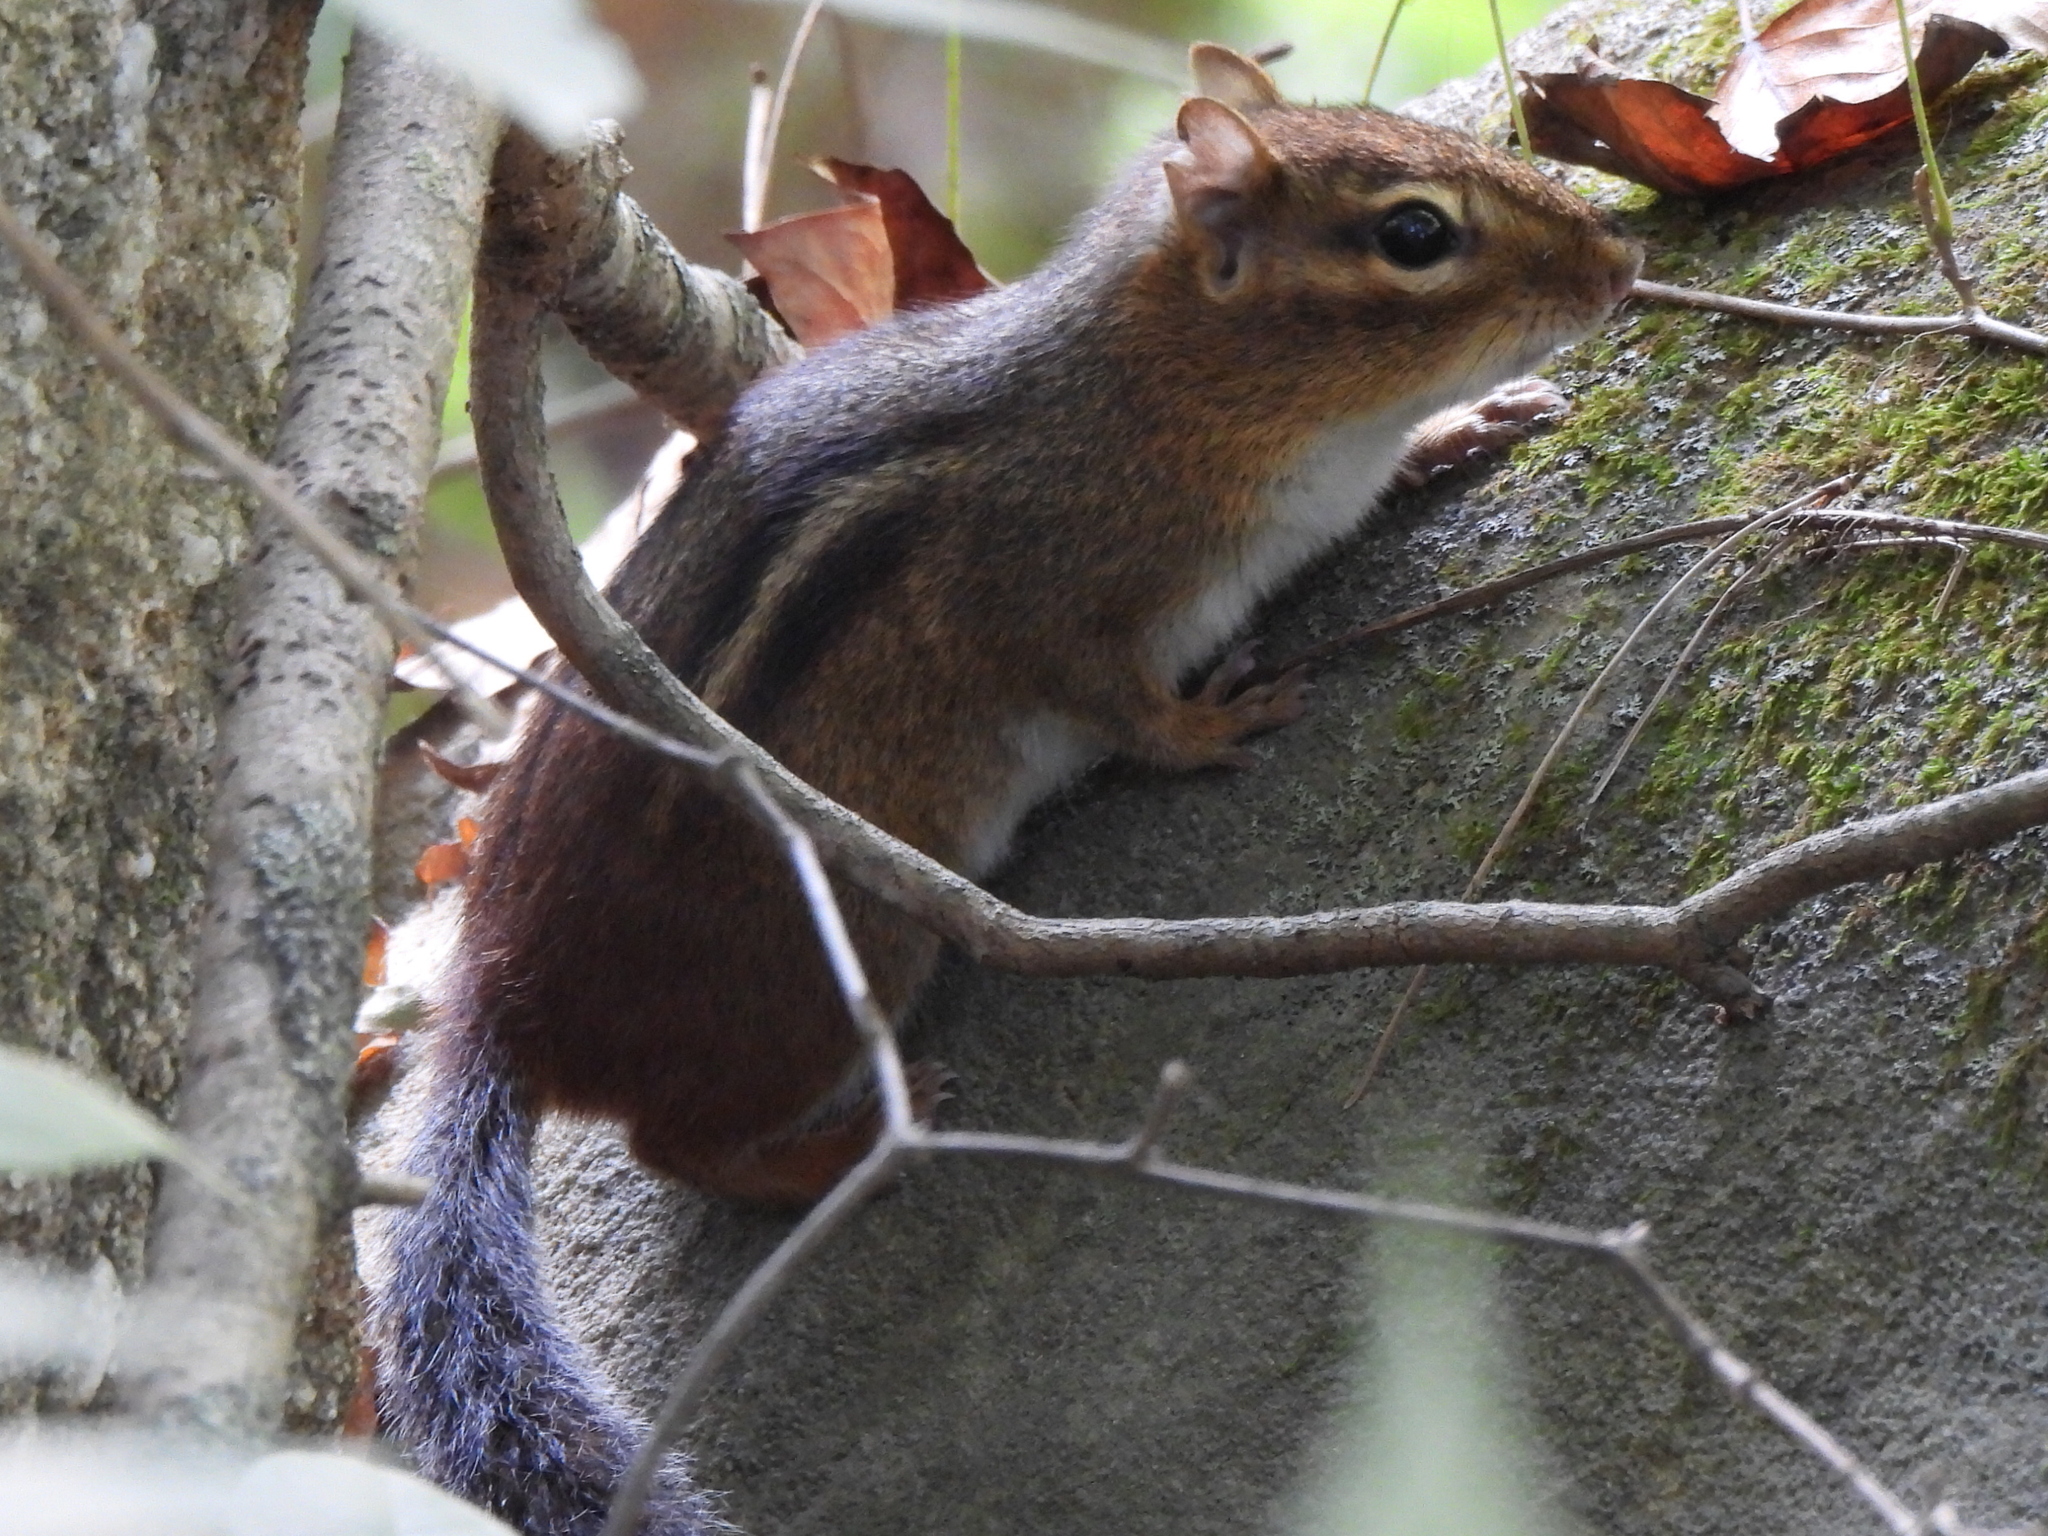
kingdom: Animalia
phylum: Chordata
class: Mammalia
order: Rodentia
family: Sciuridae
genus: Tamias
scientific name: Tamias striatus
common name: Eastern chipmunk
